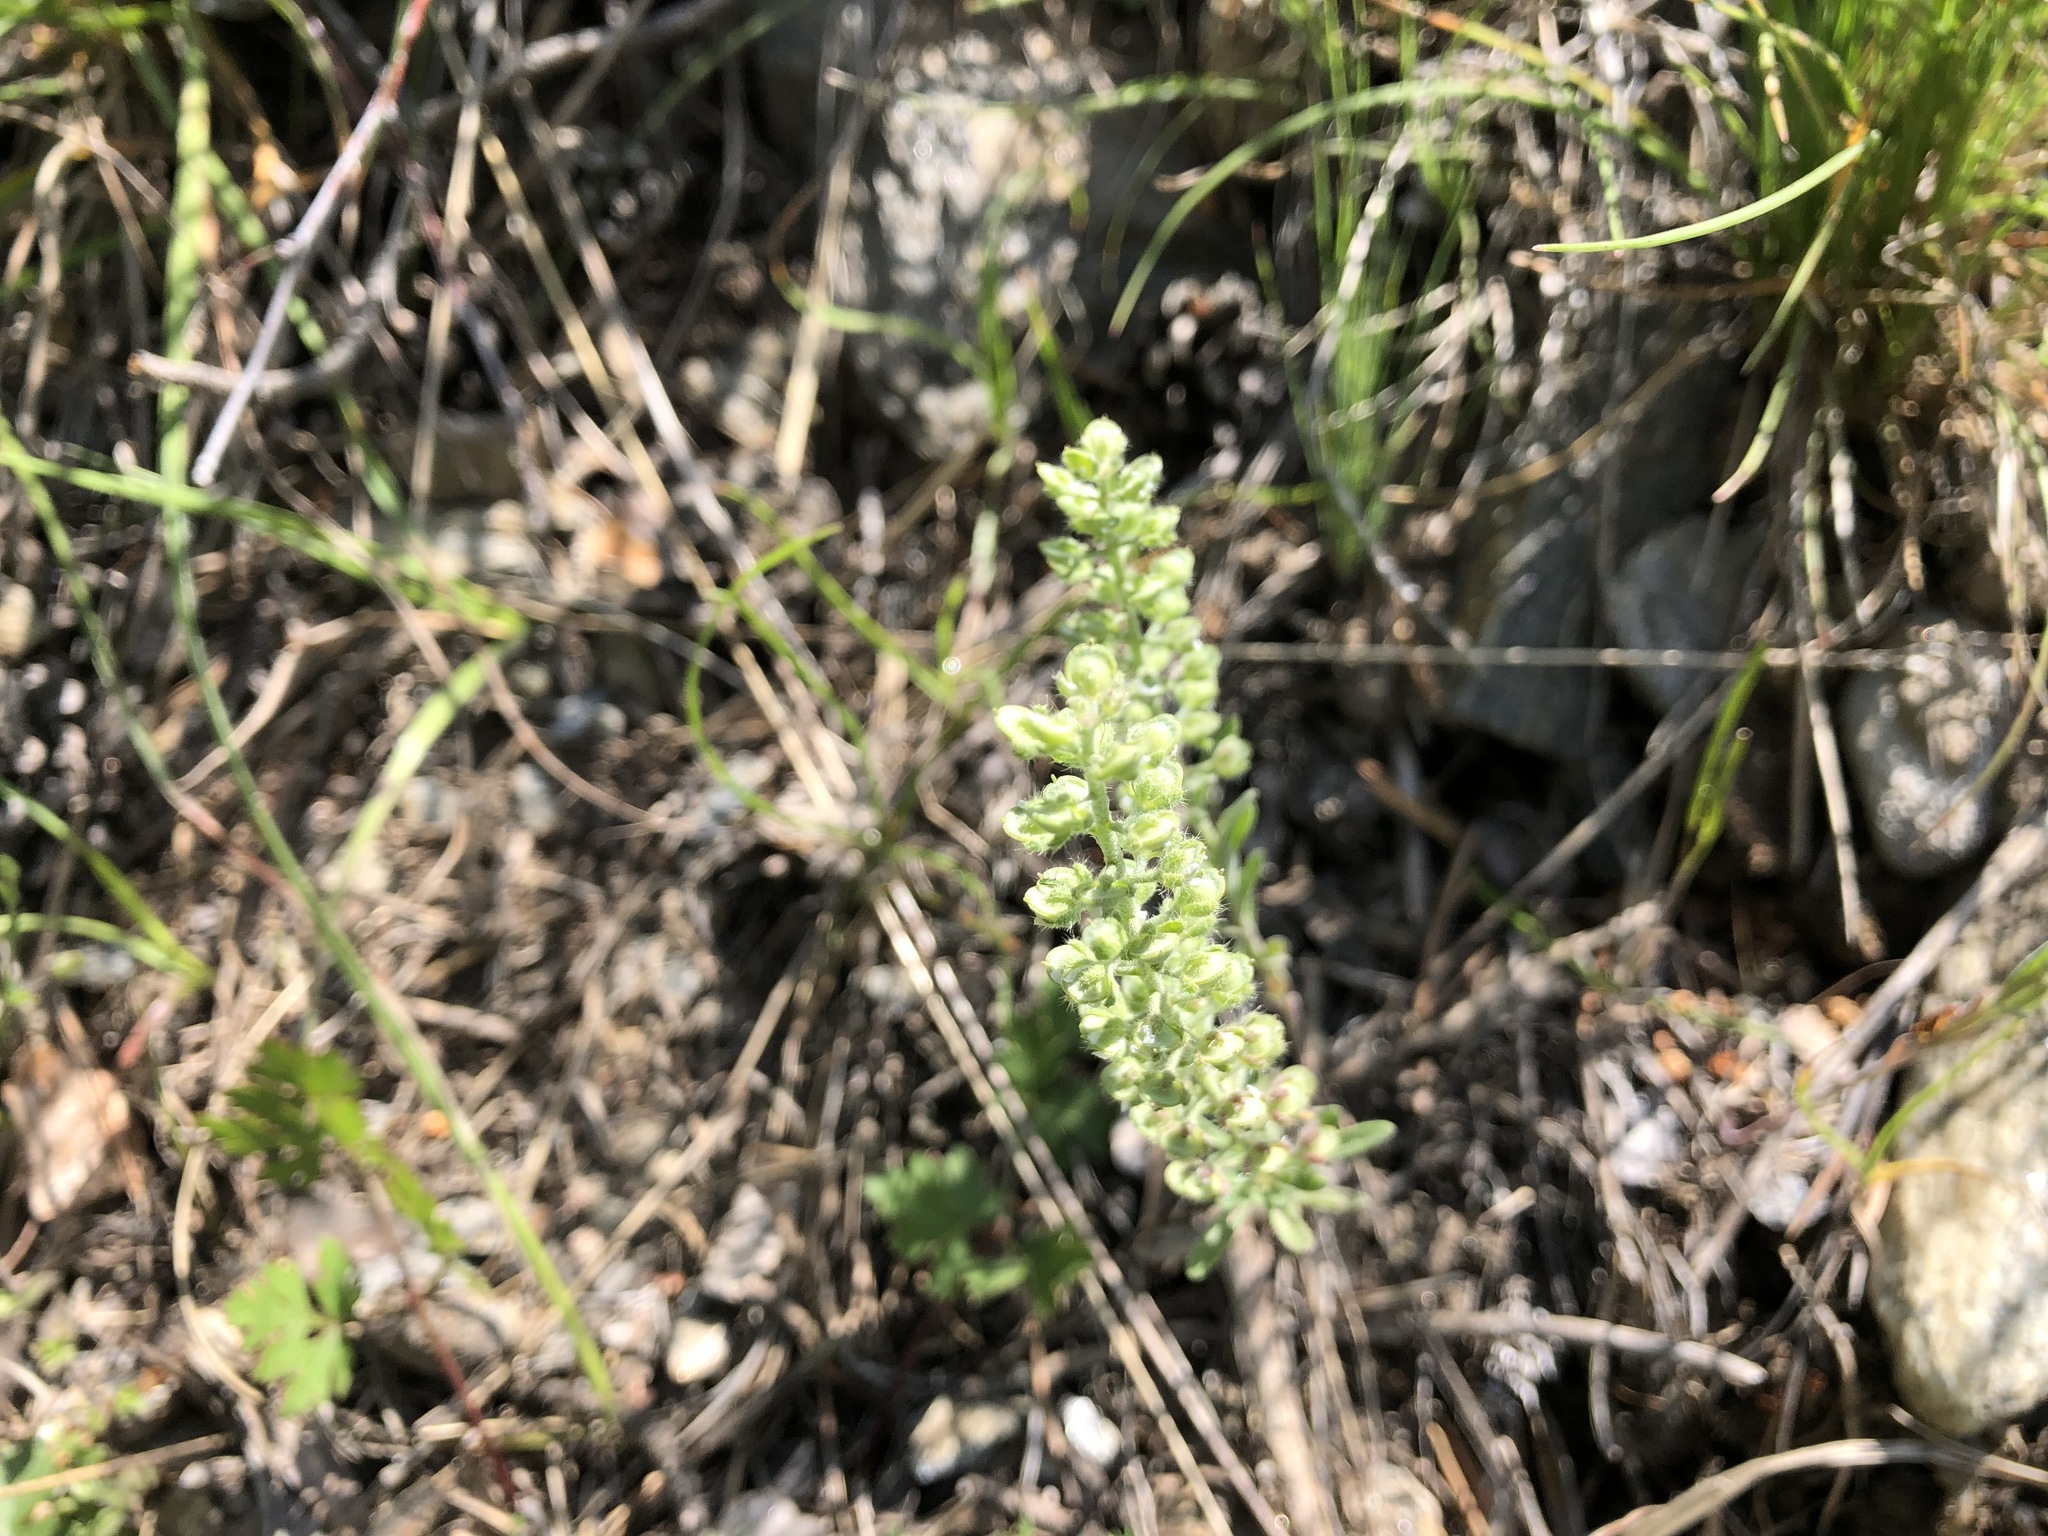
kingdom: Plantae
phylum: Tracheophyta
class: Magnoliopsida
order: Brassicales
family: Brassicaceae
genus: Alyssum
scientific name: Alyssum alyssoides
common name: Small alison
